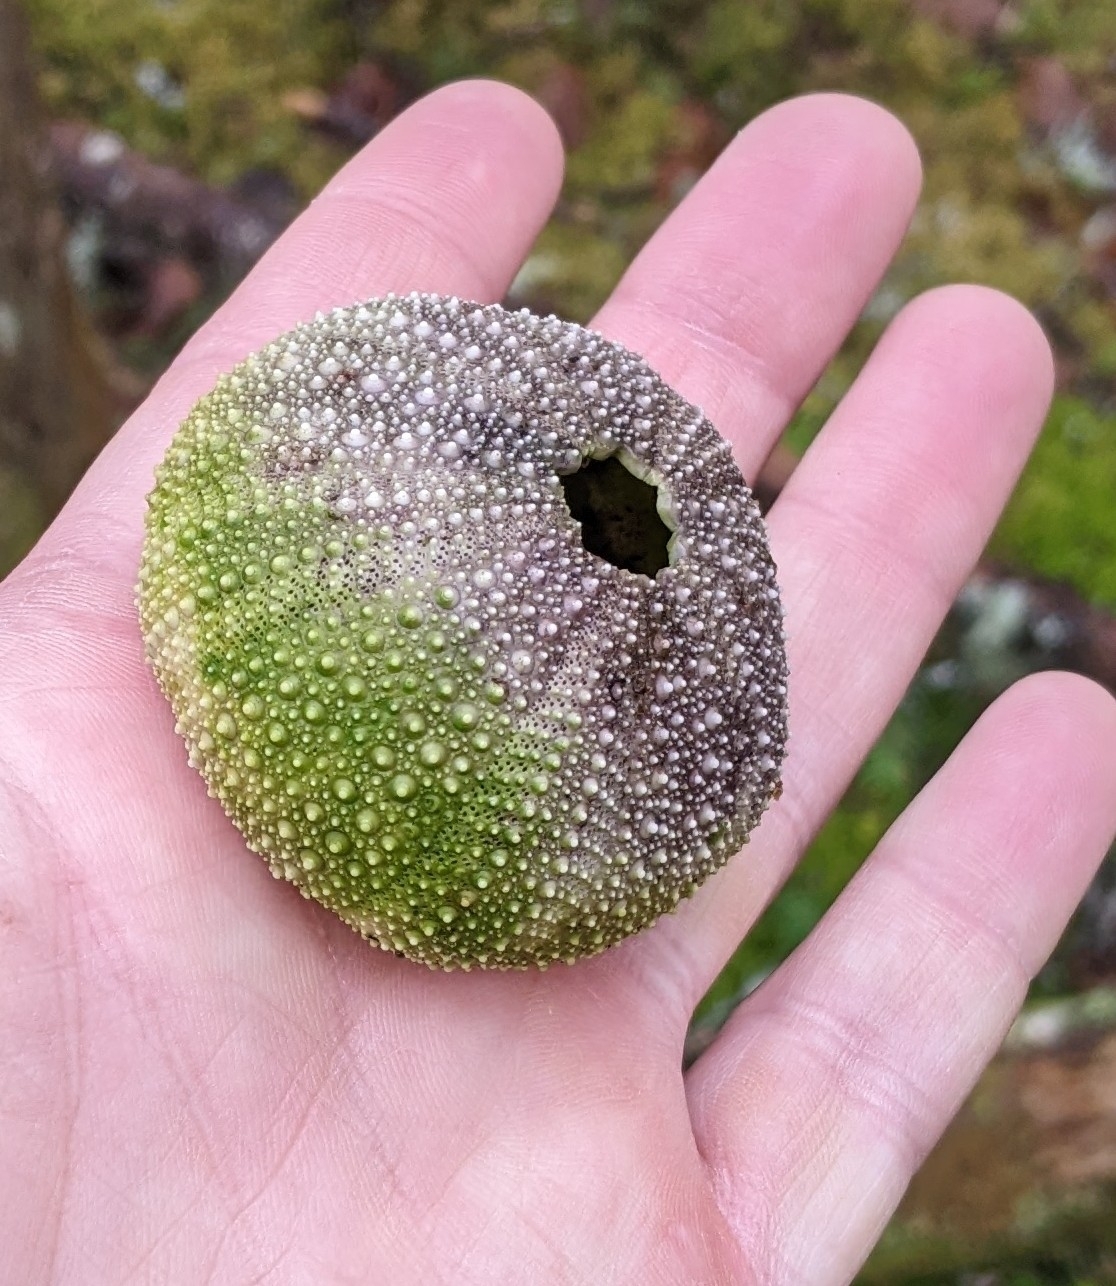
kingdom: Animalia
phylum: Echinodermata
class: Echinoidea
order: Camarodonta
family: Strongylocentrotidae
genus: Strongylocentrotus
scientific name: Strongylocentrotus droebachiensis
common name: Northern sea urchin
